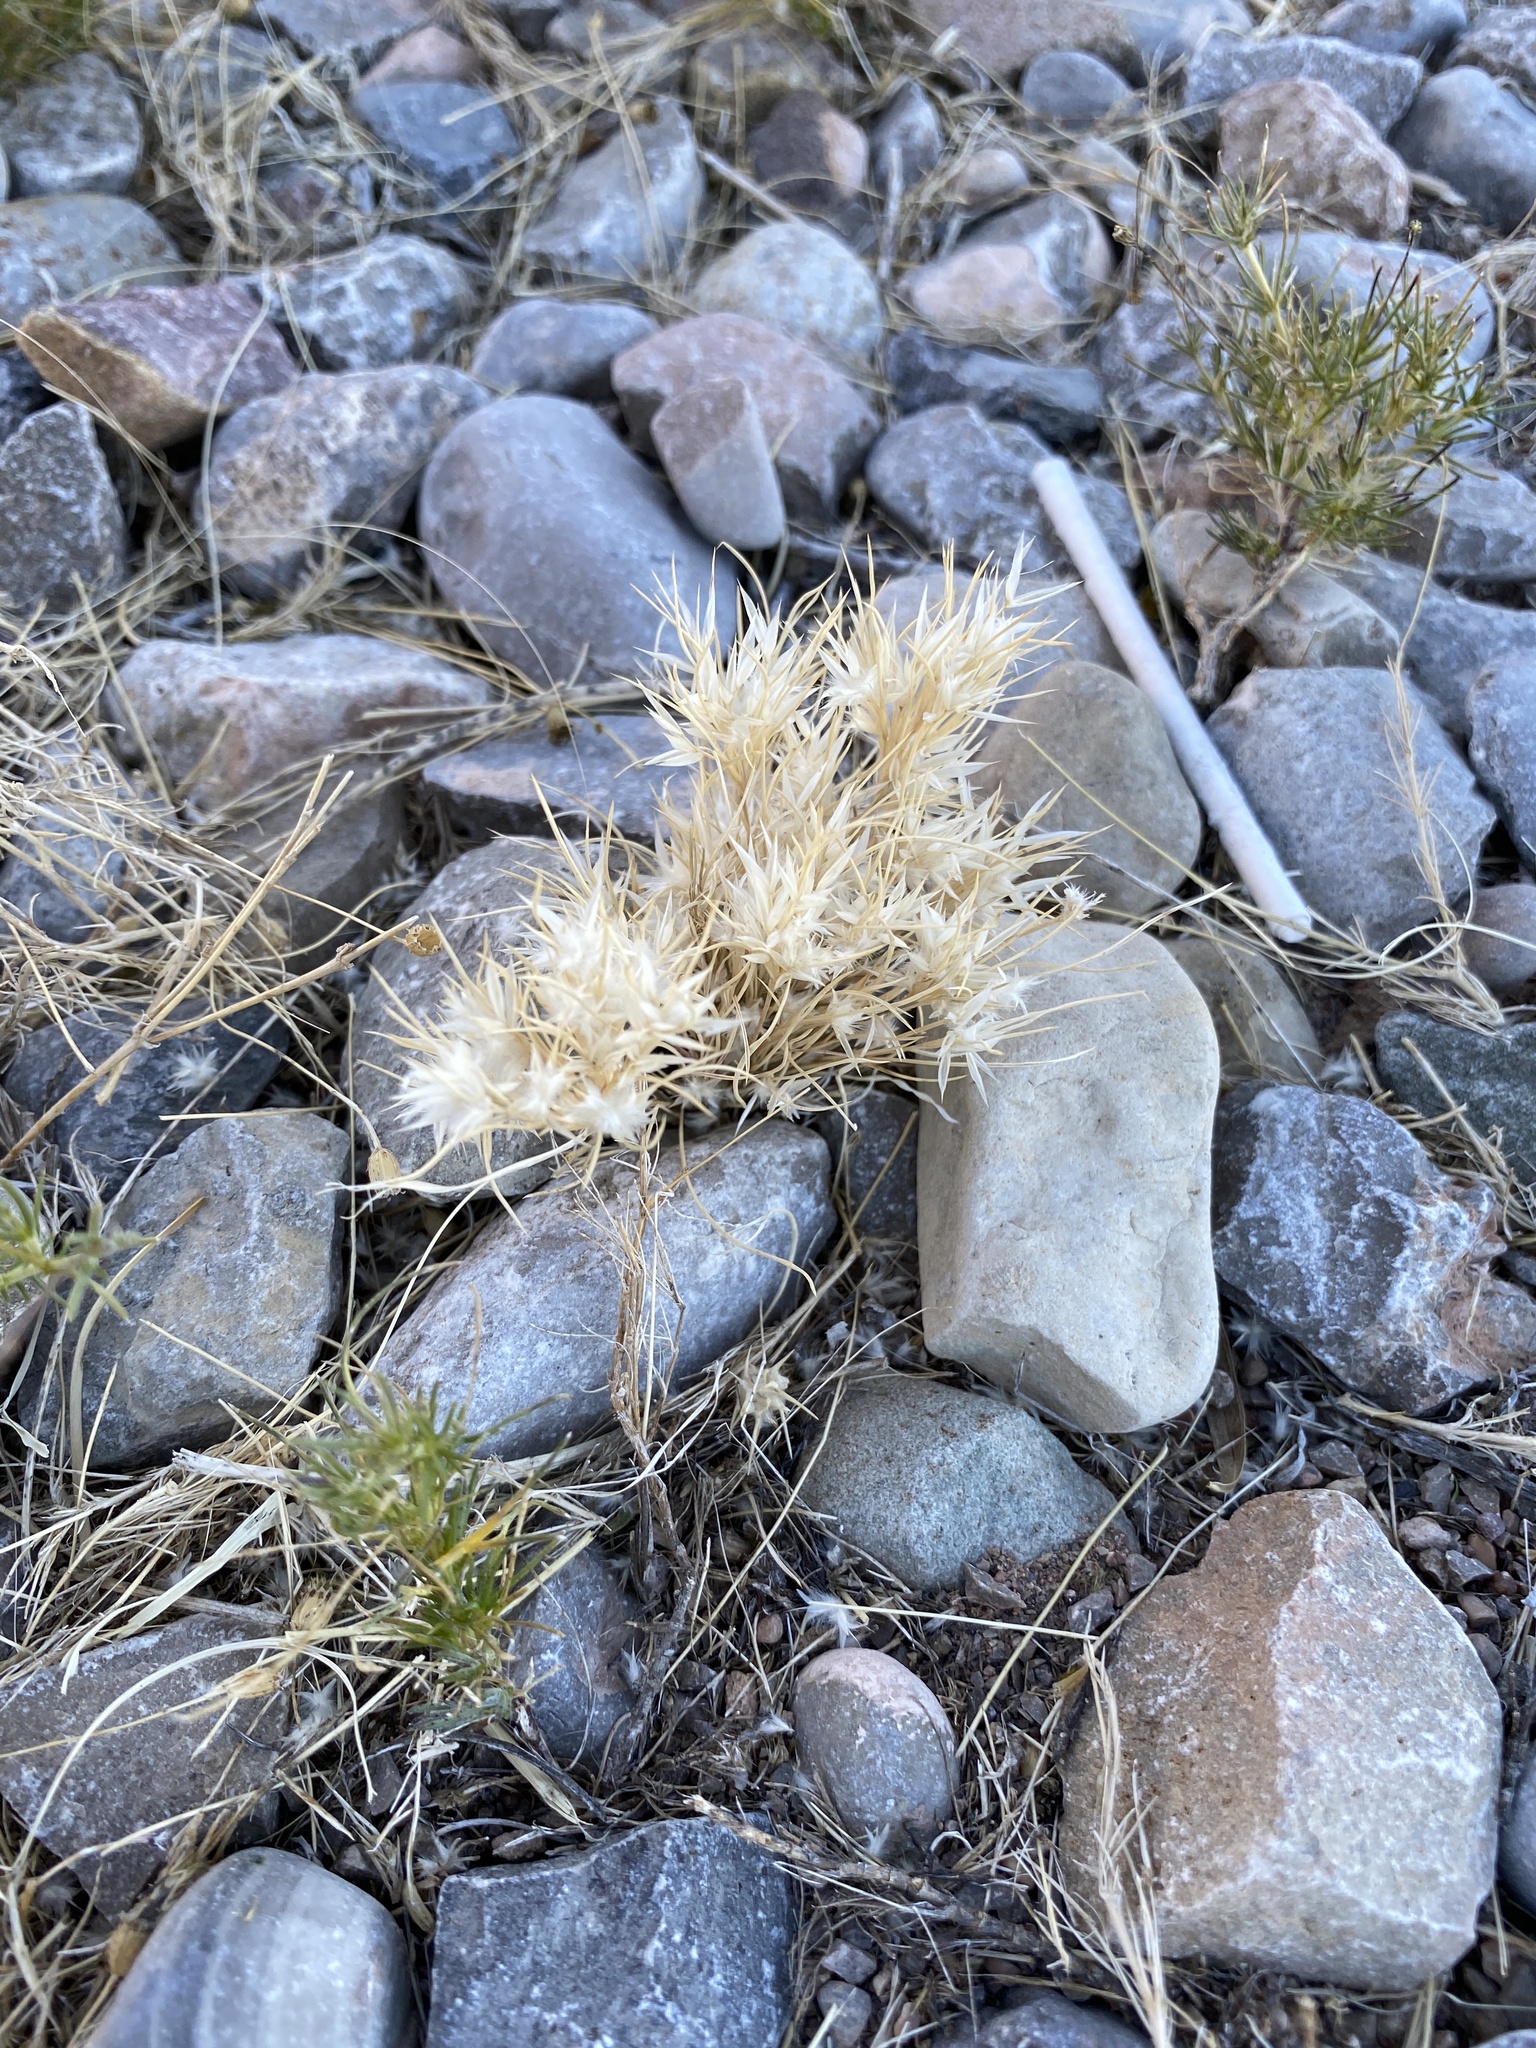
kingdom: Plantae
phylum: Tracheophyta
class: Liliopsida
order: Poales
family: Poaceae
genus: Dasyochloa
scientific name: Dasyochloa pulchella
